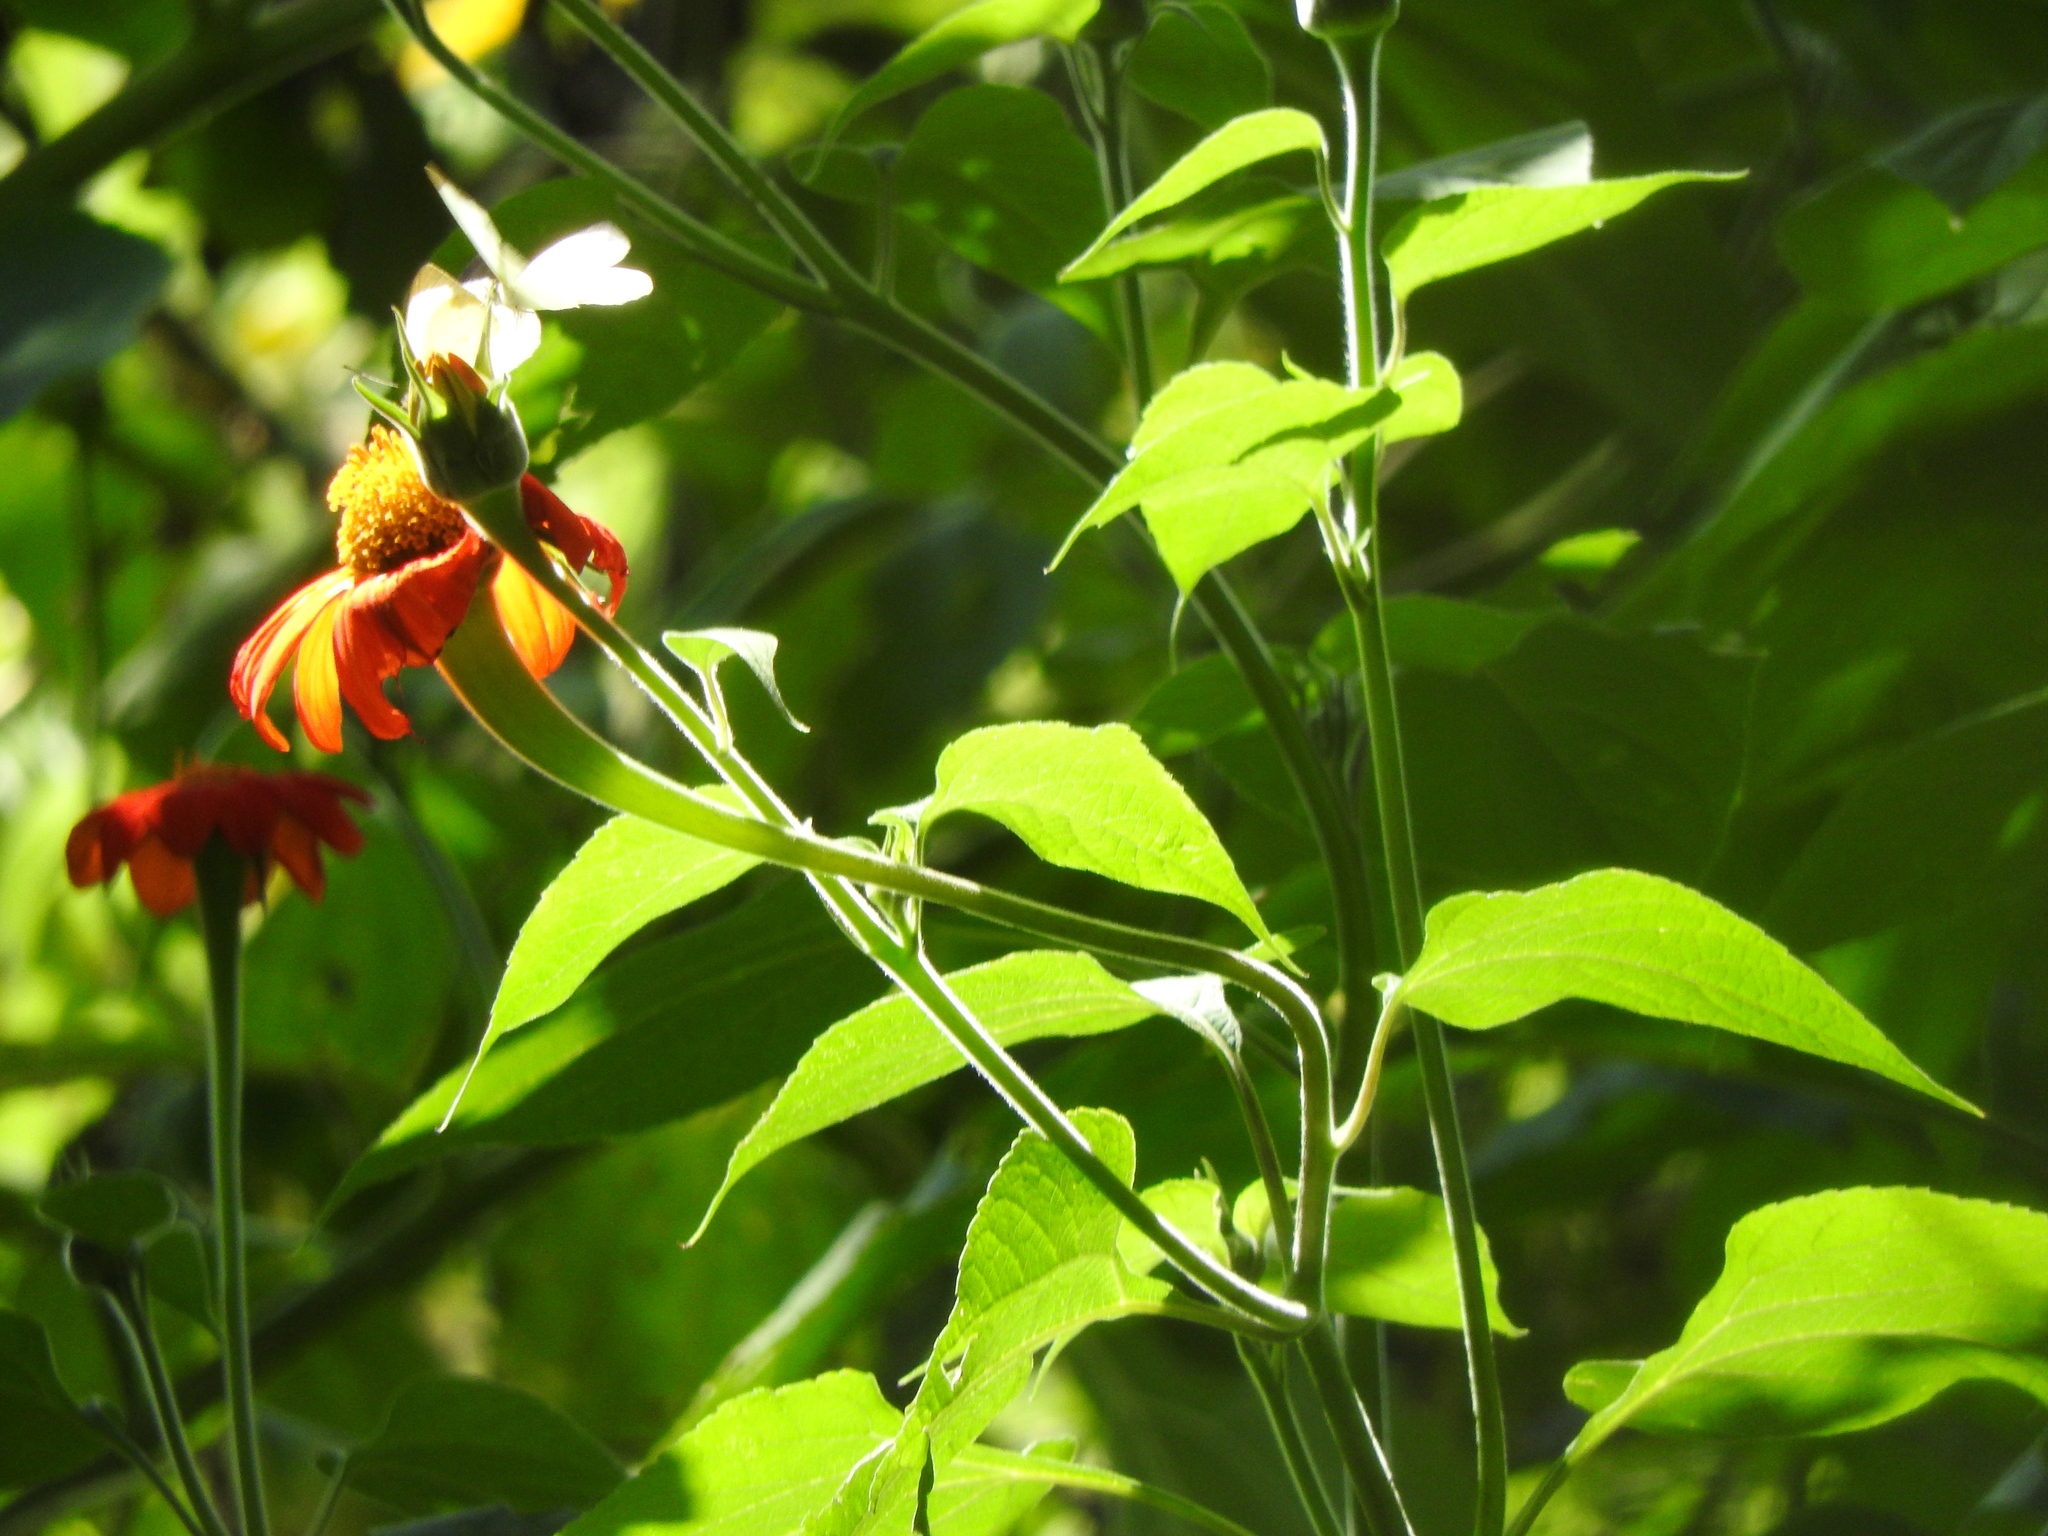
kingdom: Plantae
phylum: Tracheophyta
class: Magnoliopsida
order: Asterales
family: Asteraceae
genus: Tithonia
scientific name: Tithonia rotundifolia
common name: Sunflower
